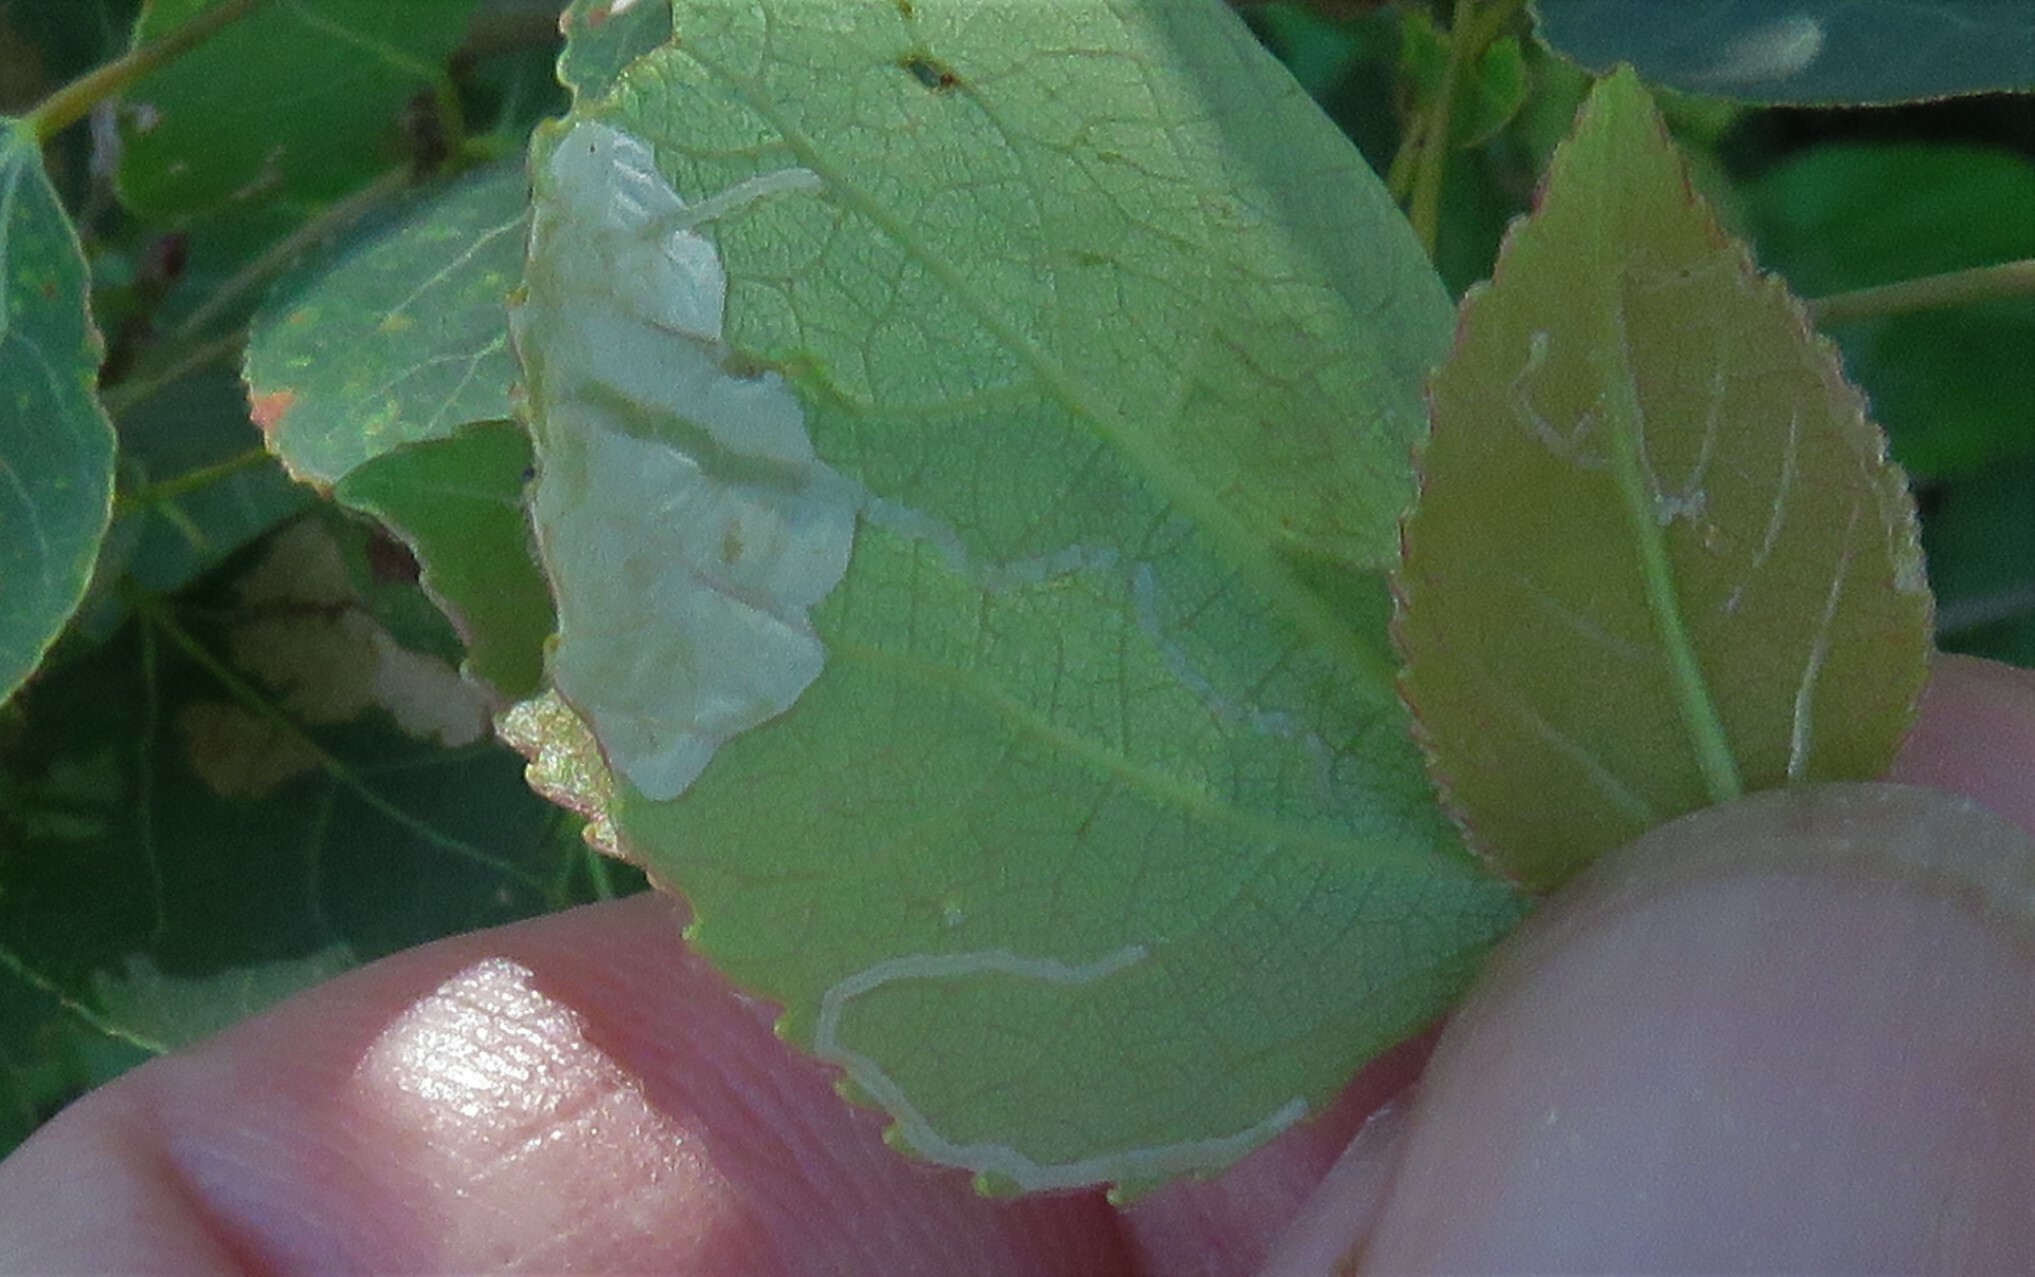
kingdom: Animalia
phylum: Arthropoda
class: Insecta
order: Lepidoptera
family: Gracillariidae
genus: Phyllocnistis
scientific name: Phyllocnistis populiella
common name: Aspen serpentine leafminer moth
